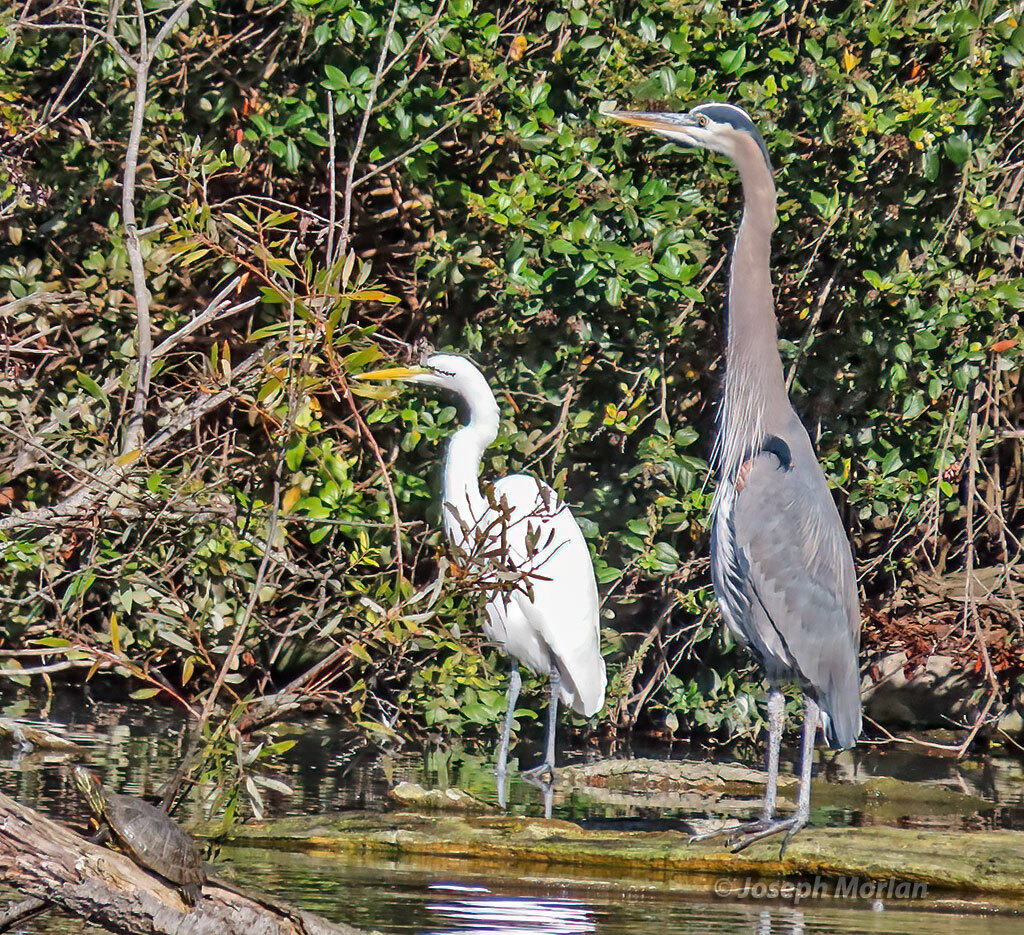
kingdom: Animalia
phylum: Chordata
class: Aves
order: Pelecaniformes
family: Ardeidae
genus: Ardea
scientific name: Ardea herodias
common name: Great blue heron
